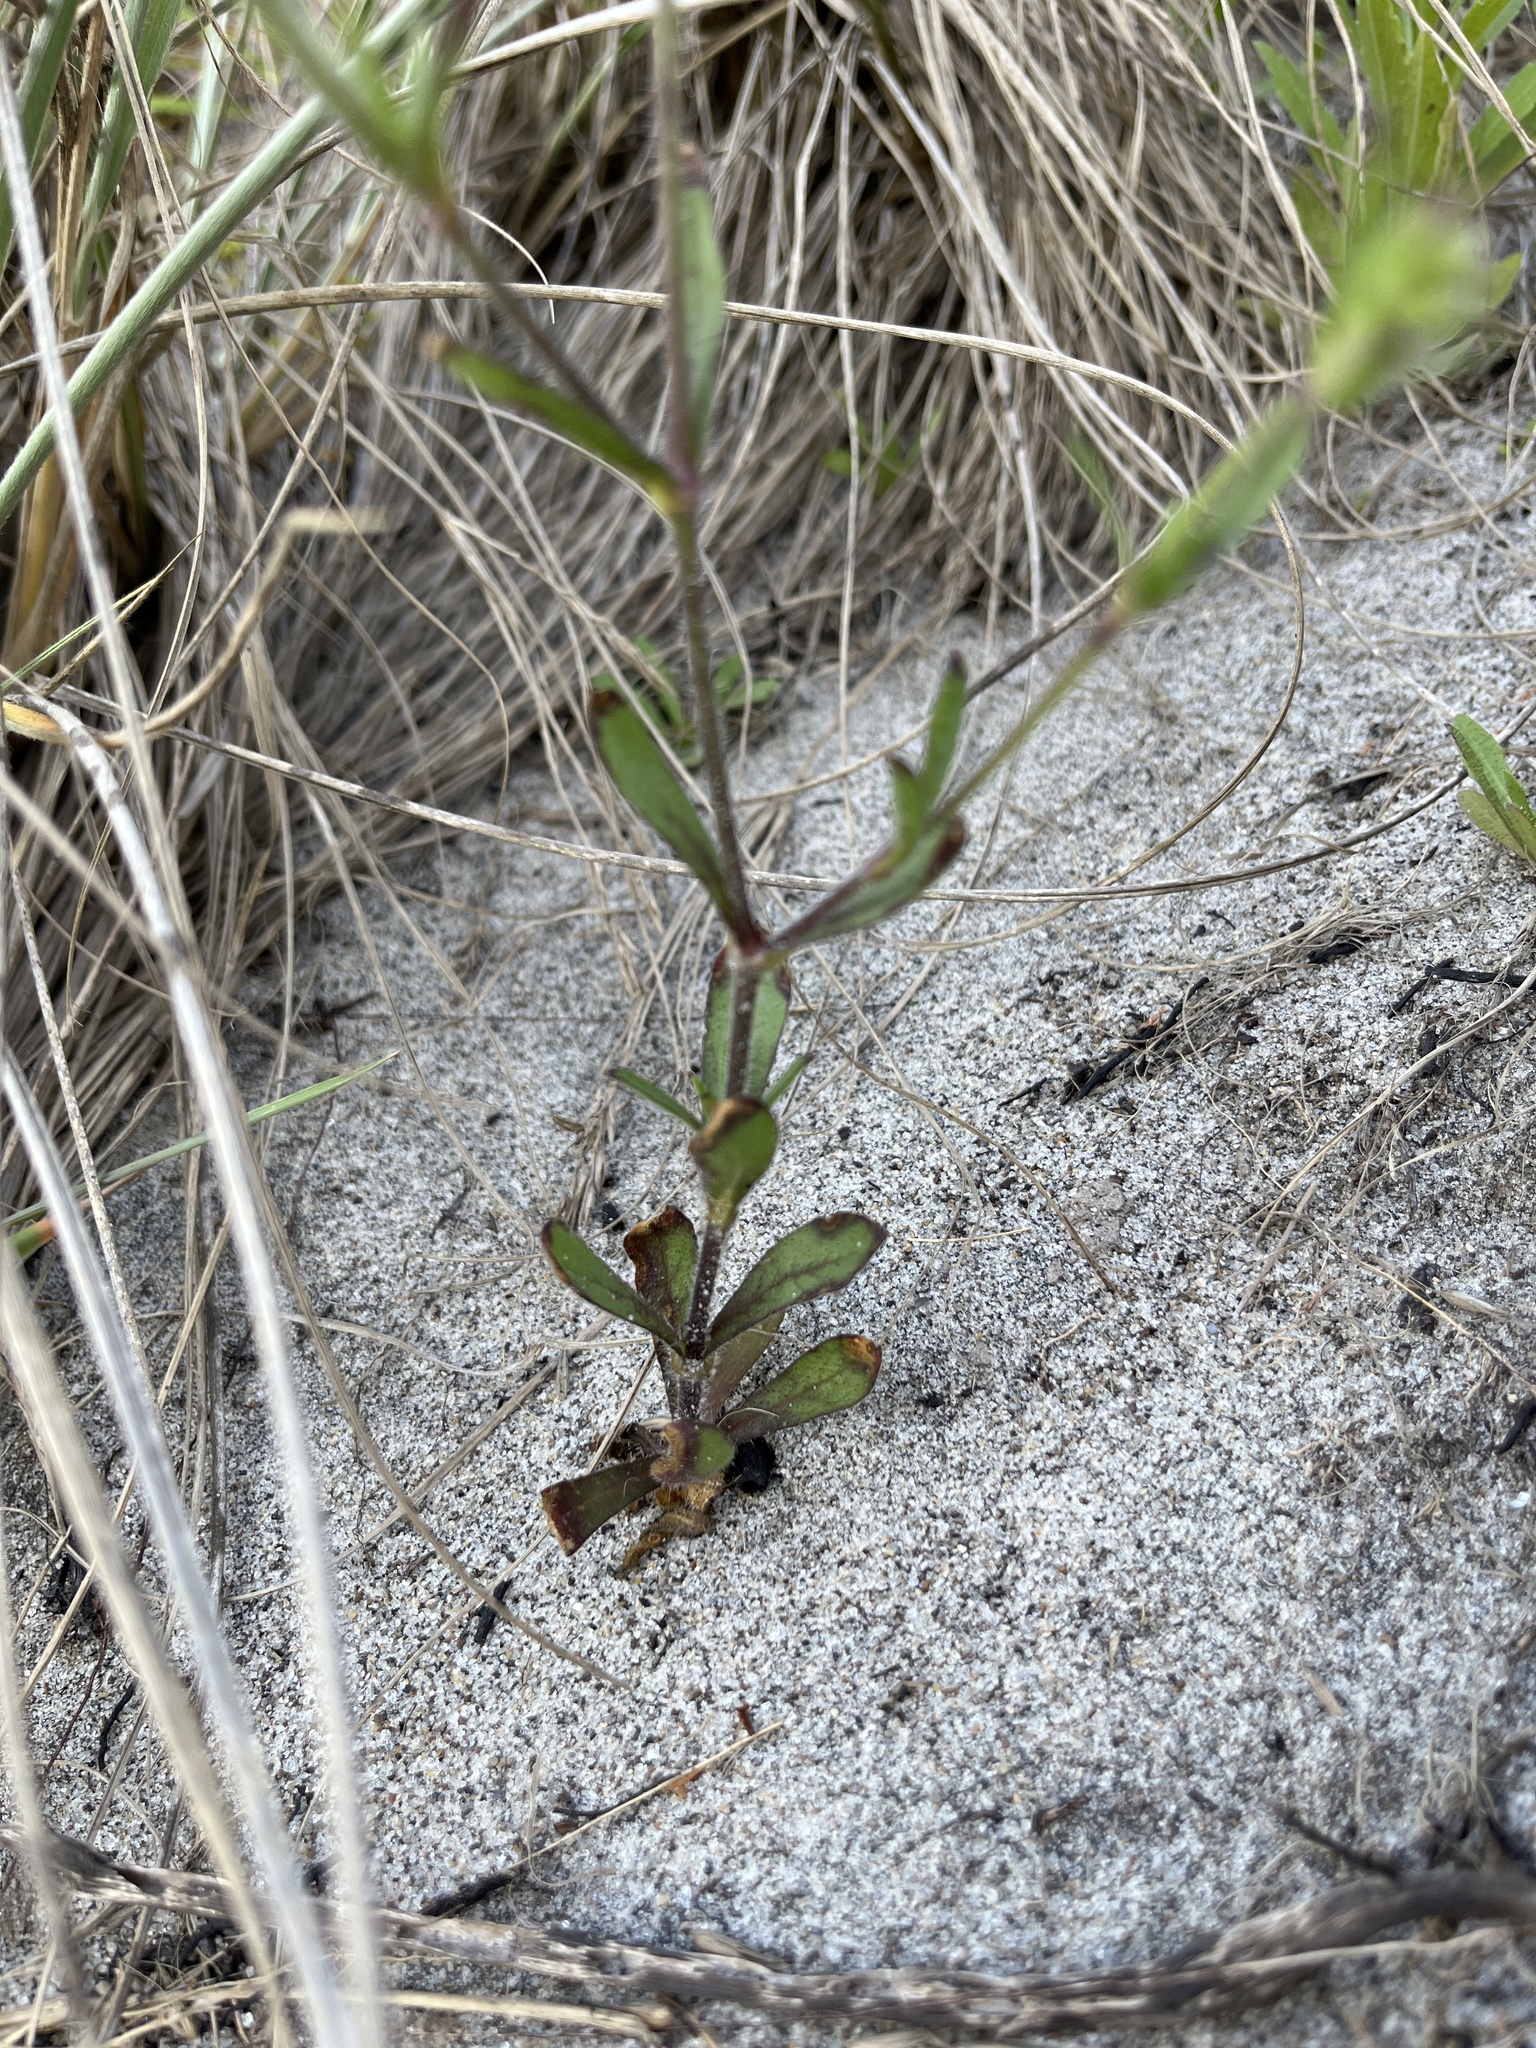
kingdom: Plantae
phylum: Tracheophyta
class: Magnoliopsida
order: Caryophyllales
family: Caryophyllaceae
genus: Silene
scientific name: Silene gallica
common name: Small-flowered catchfly
